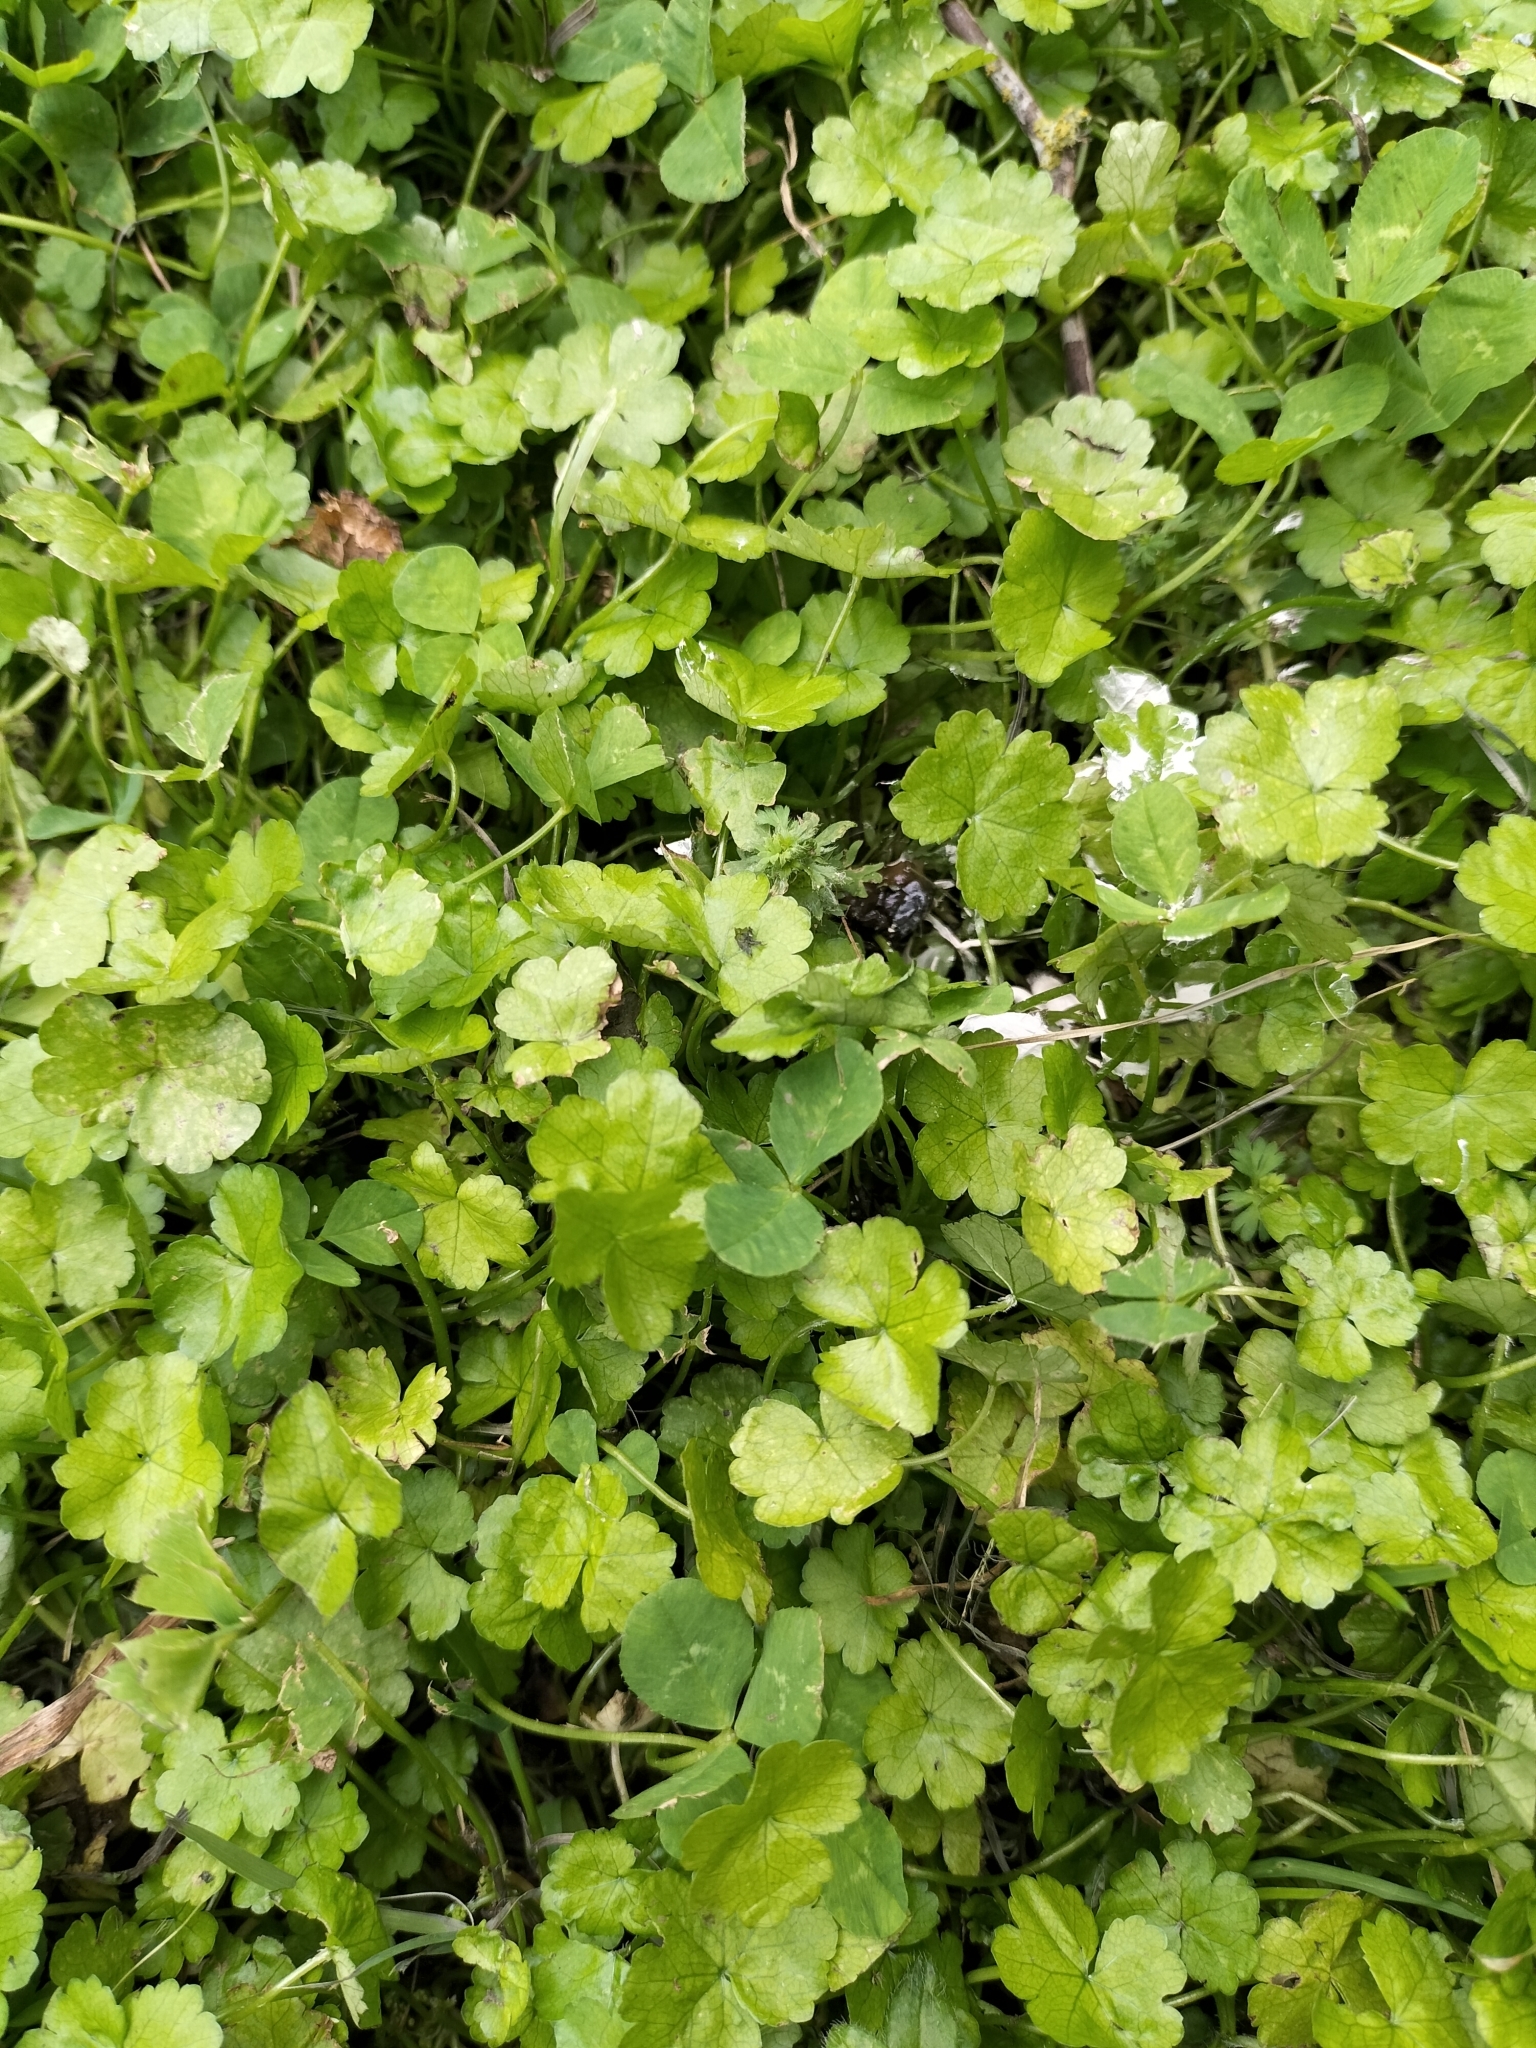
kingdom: Plantae
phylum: Tracheophyta
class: Magnoliopsida
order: Apiales
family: Araliaceae
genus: Hydrocotyle
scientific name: Hydrocotyle heteromeria
